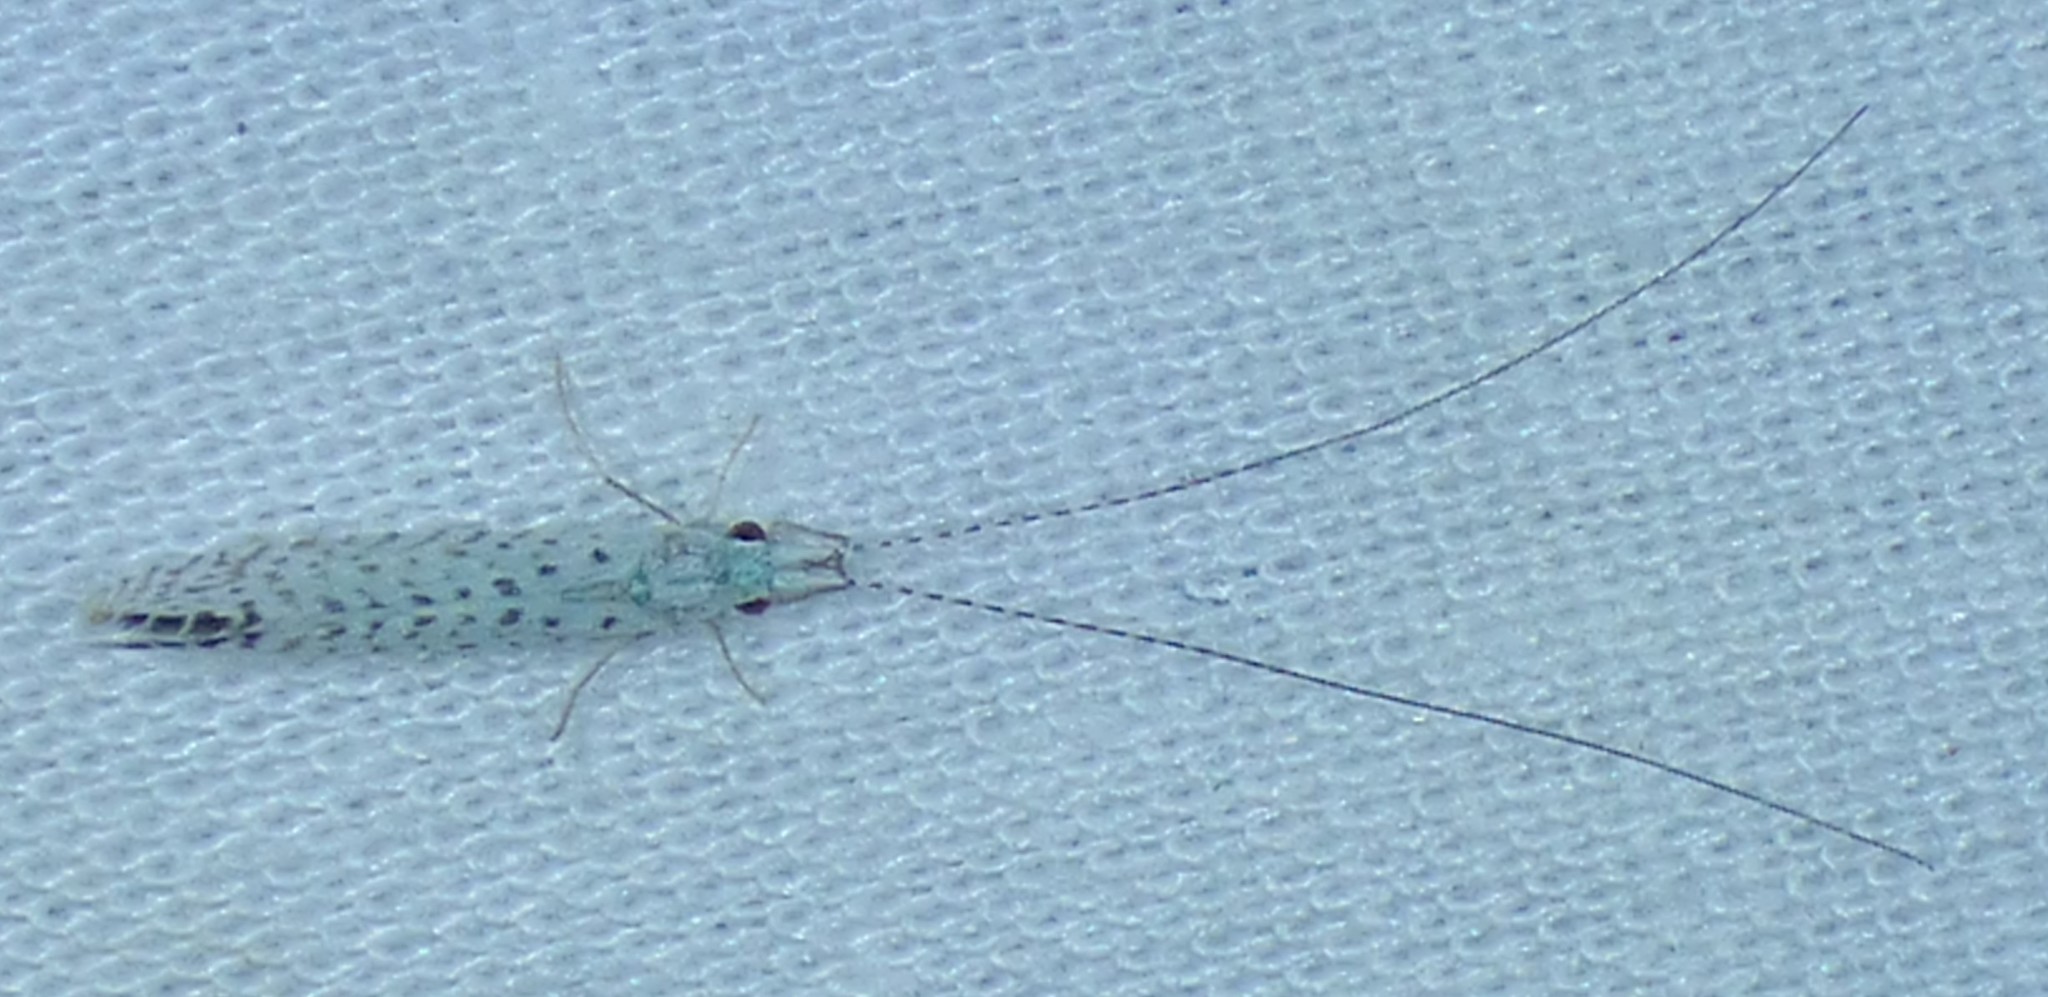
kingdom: Animalia
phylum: Arthropoda
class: Insecta
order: Trichoptera
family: Leptoceridae
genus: Nectopsyche
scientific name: Nectopsyche candida
